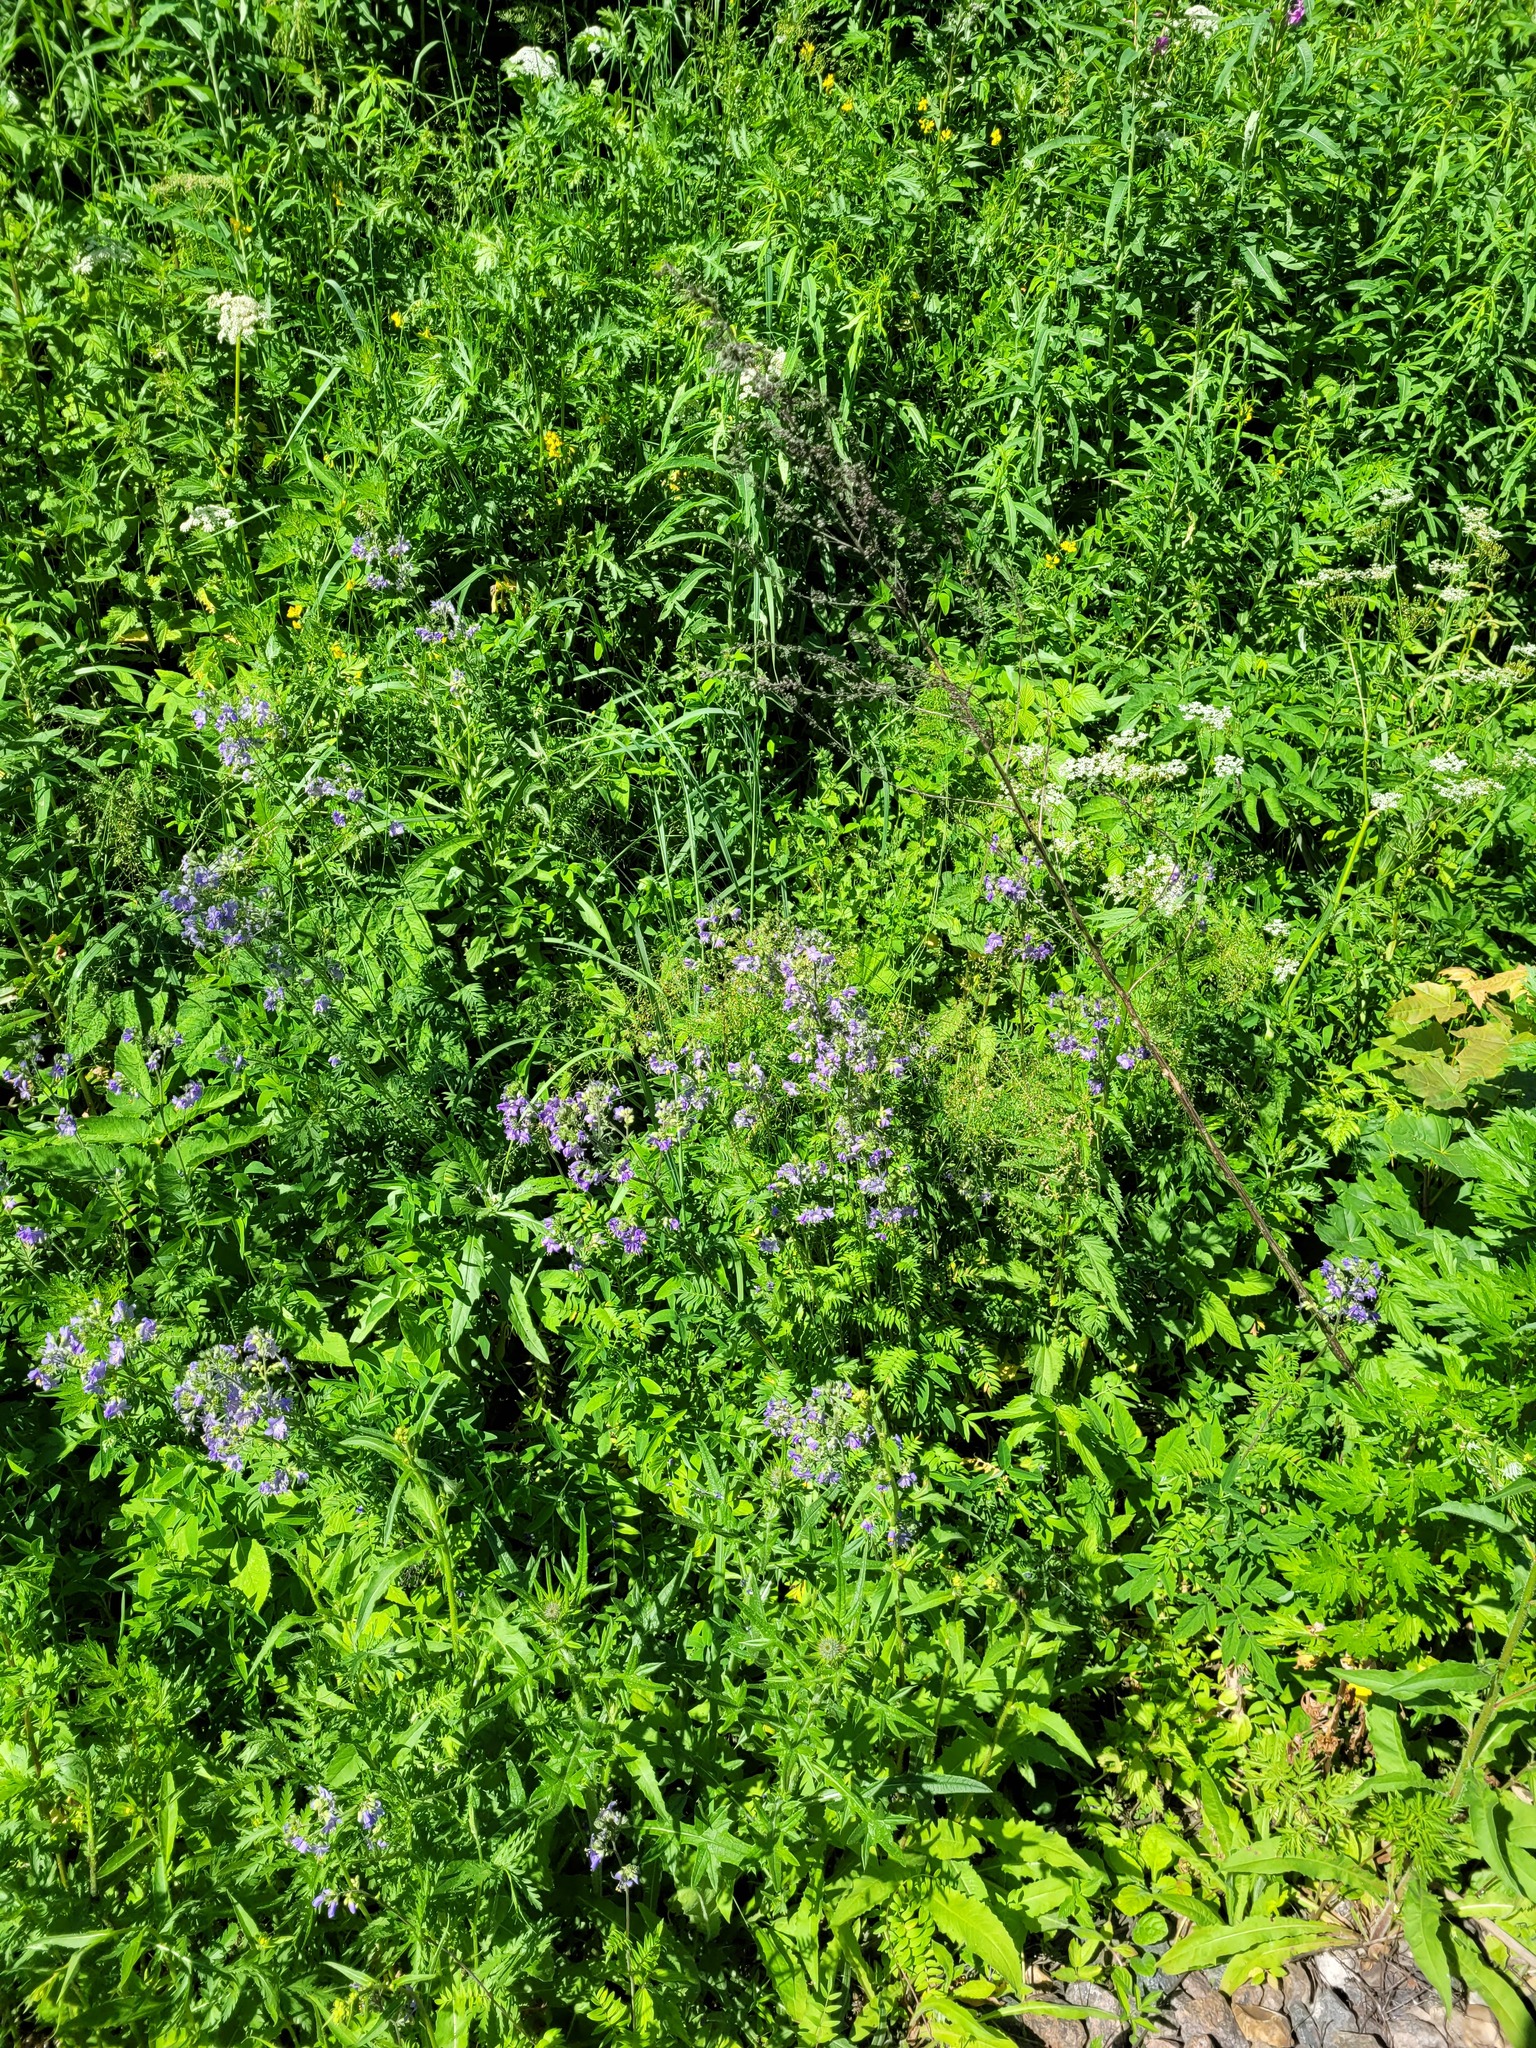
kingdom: Plantae
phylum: Tracheophyta
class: Magnoliopsida
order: Ericales
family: Polemoniaceae
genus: Polemonium
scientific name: Polemonium caeruleum
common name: Jacob's-ladder
